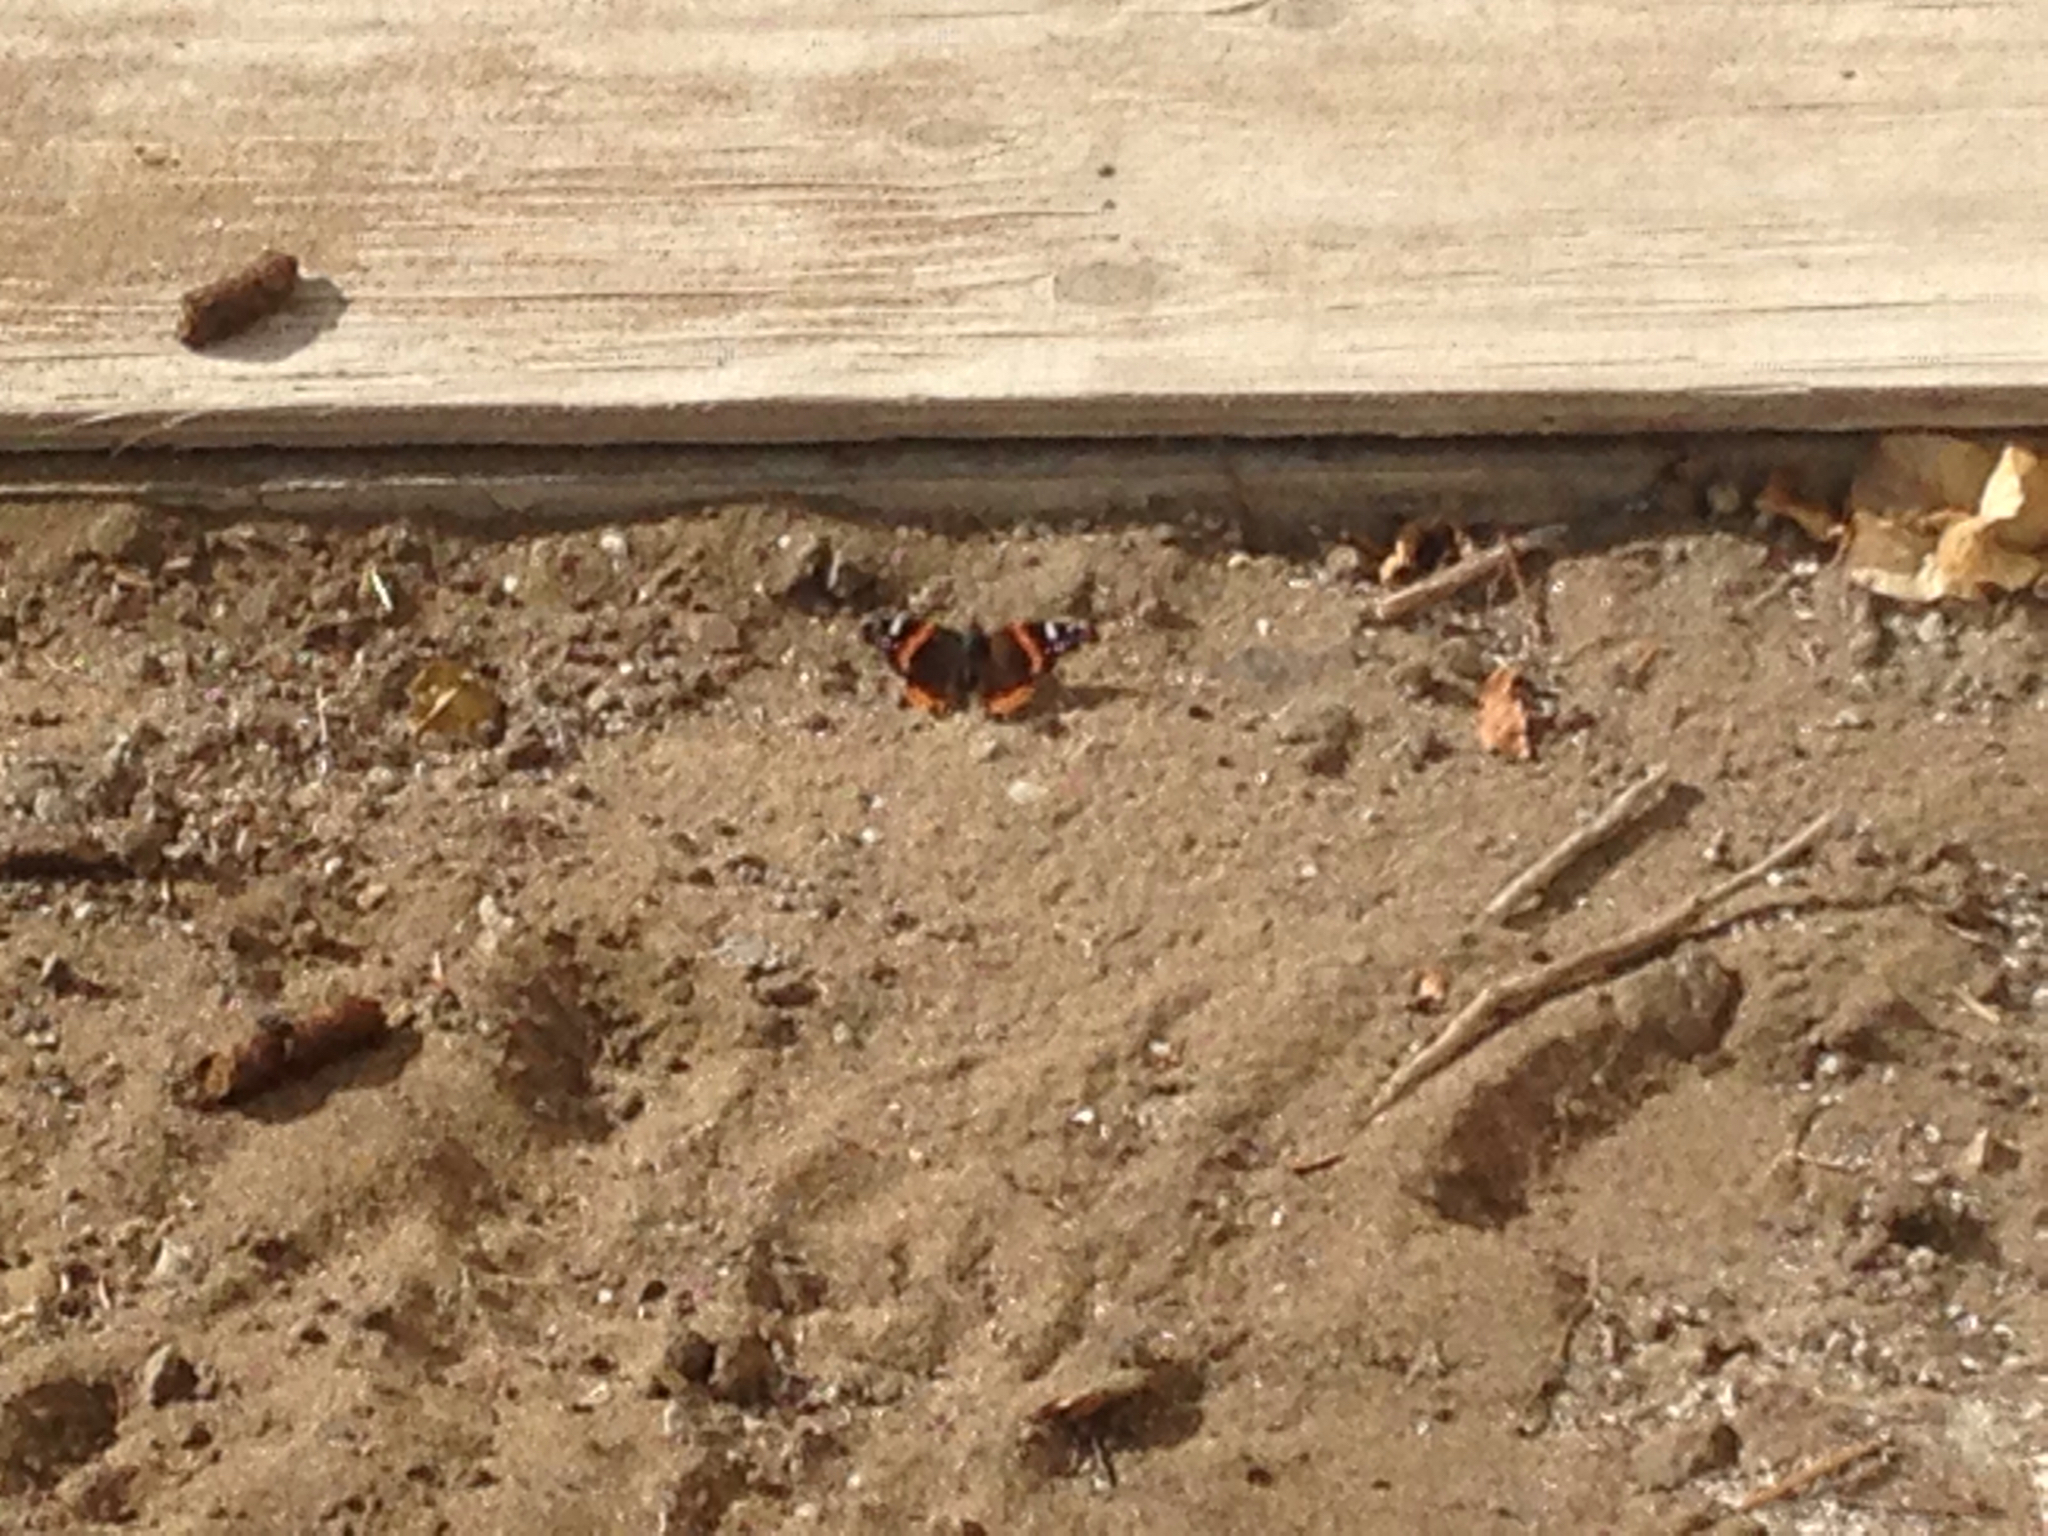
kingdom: Animalia
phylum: Arthropoda
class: Insecta
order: Lepidoptera
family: Nymphalidae
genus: Vanessa
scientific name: Vanessa atalanta
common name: Red admiral
